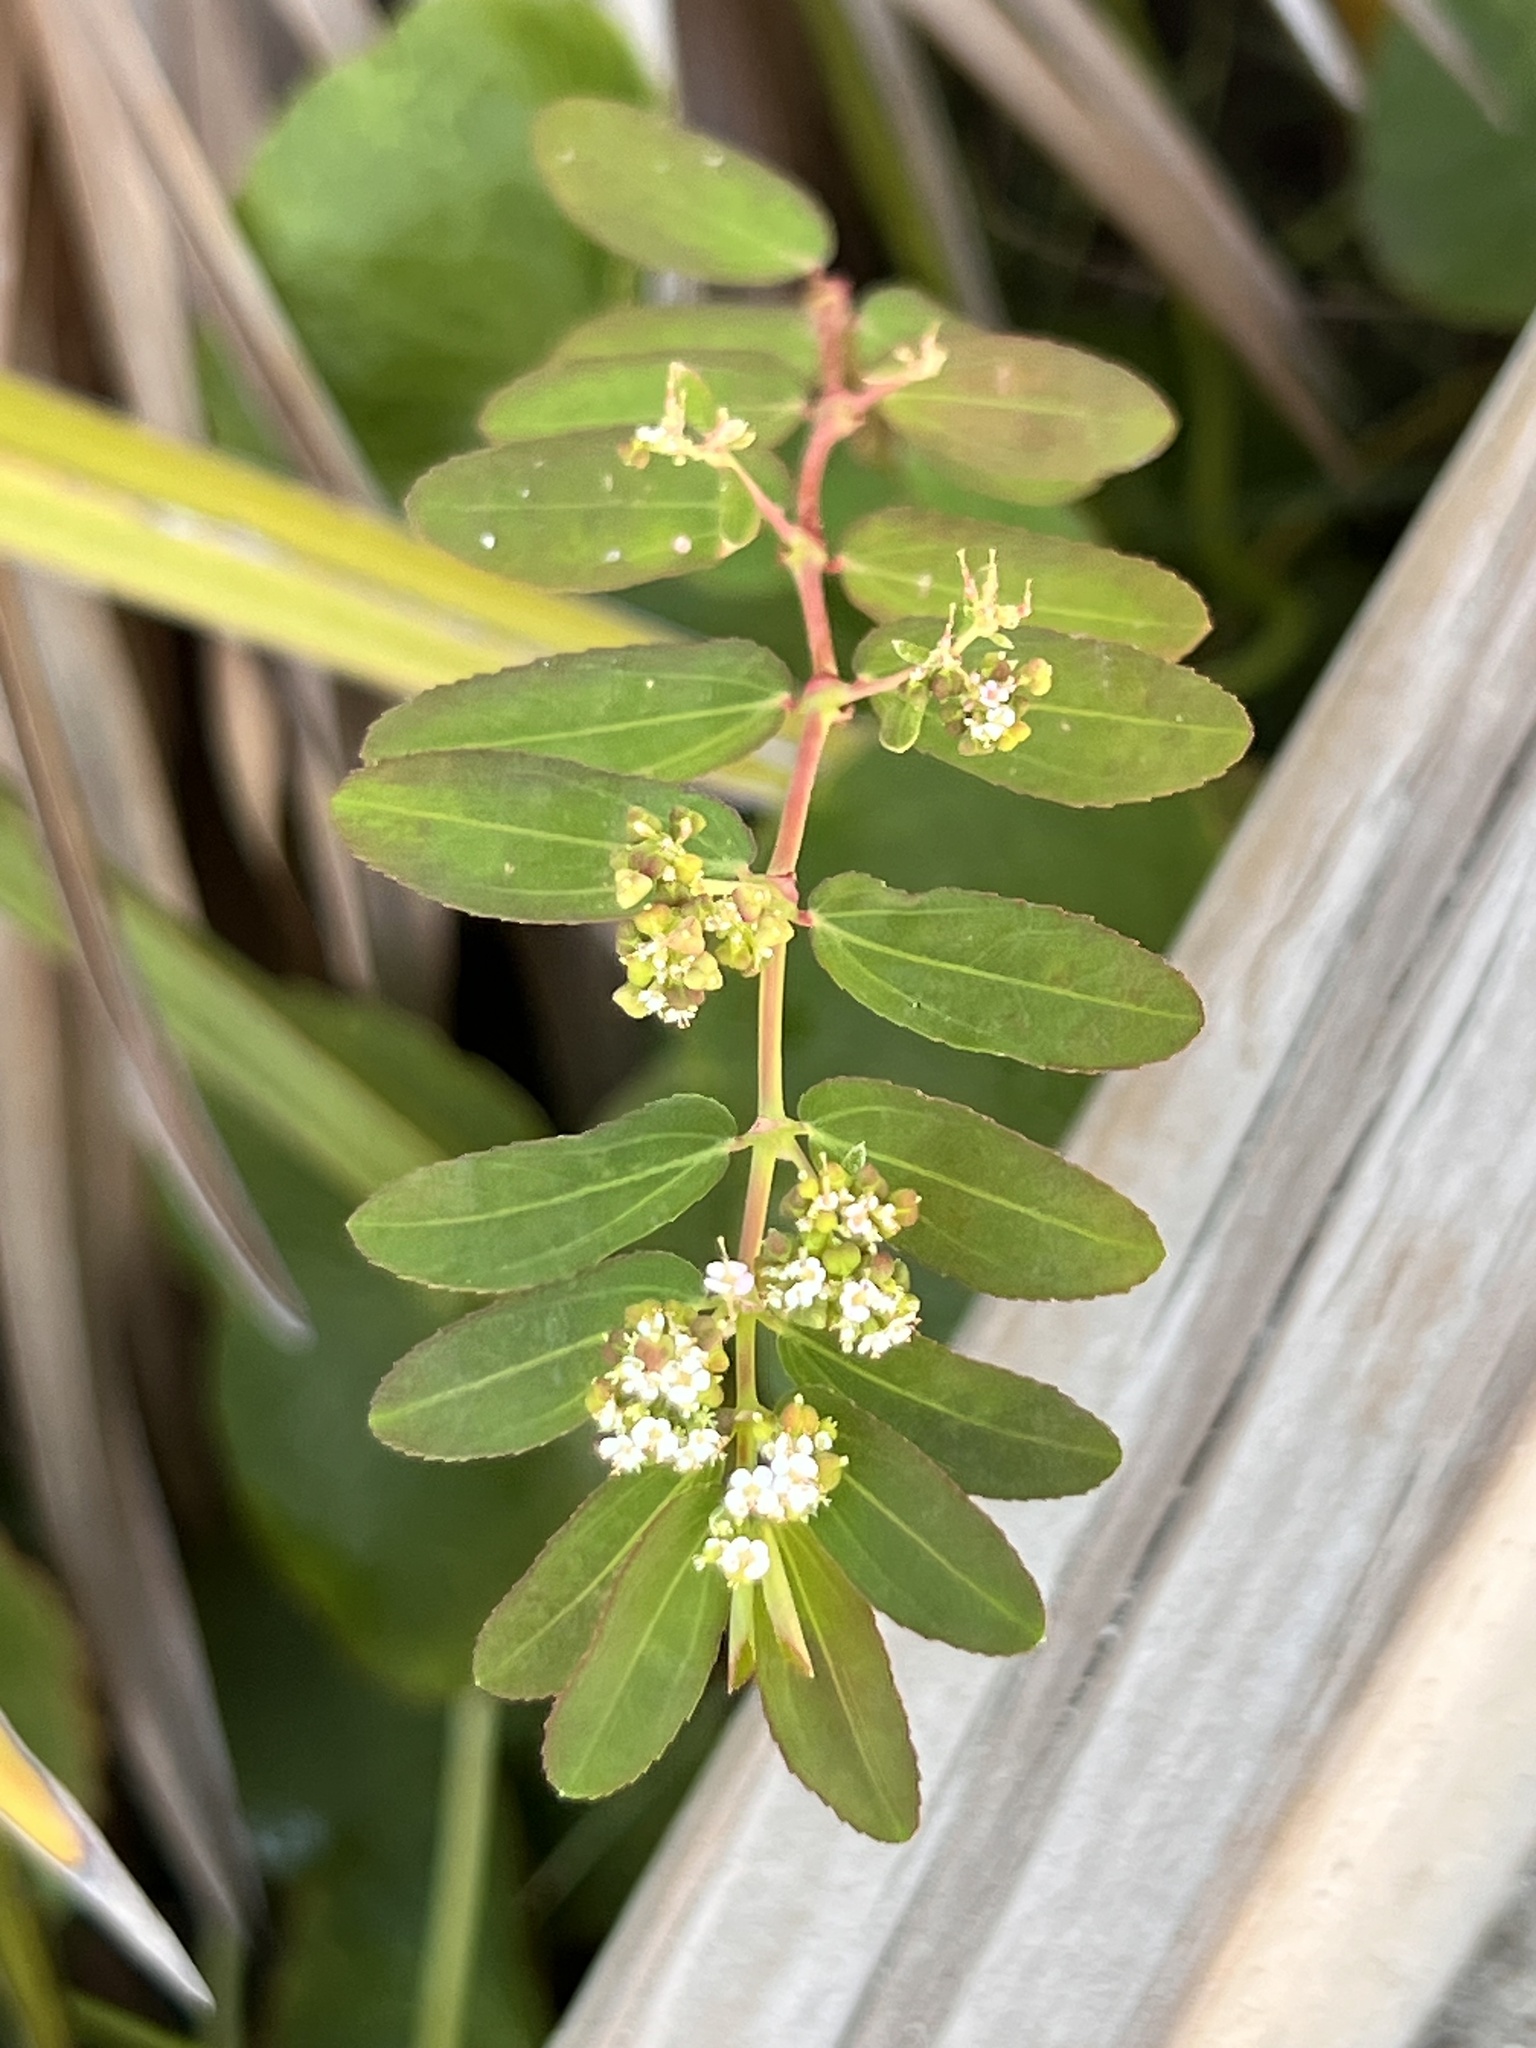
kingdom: Plantae
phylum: Tracheophyta
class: Magnoliopsida
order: Malpighiales
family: Euphorbiaceae
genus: Euphorbia
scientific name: Euphorbia hypericifolia
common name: Graceful sandmat
